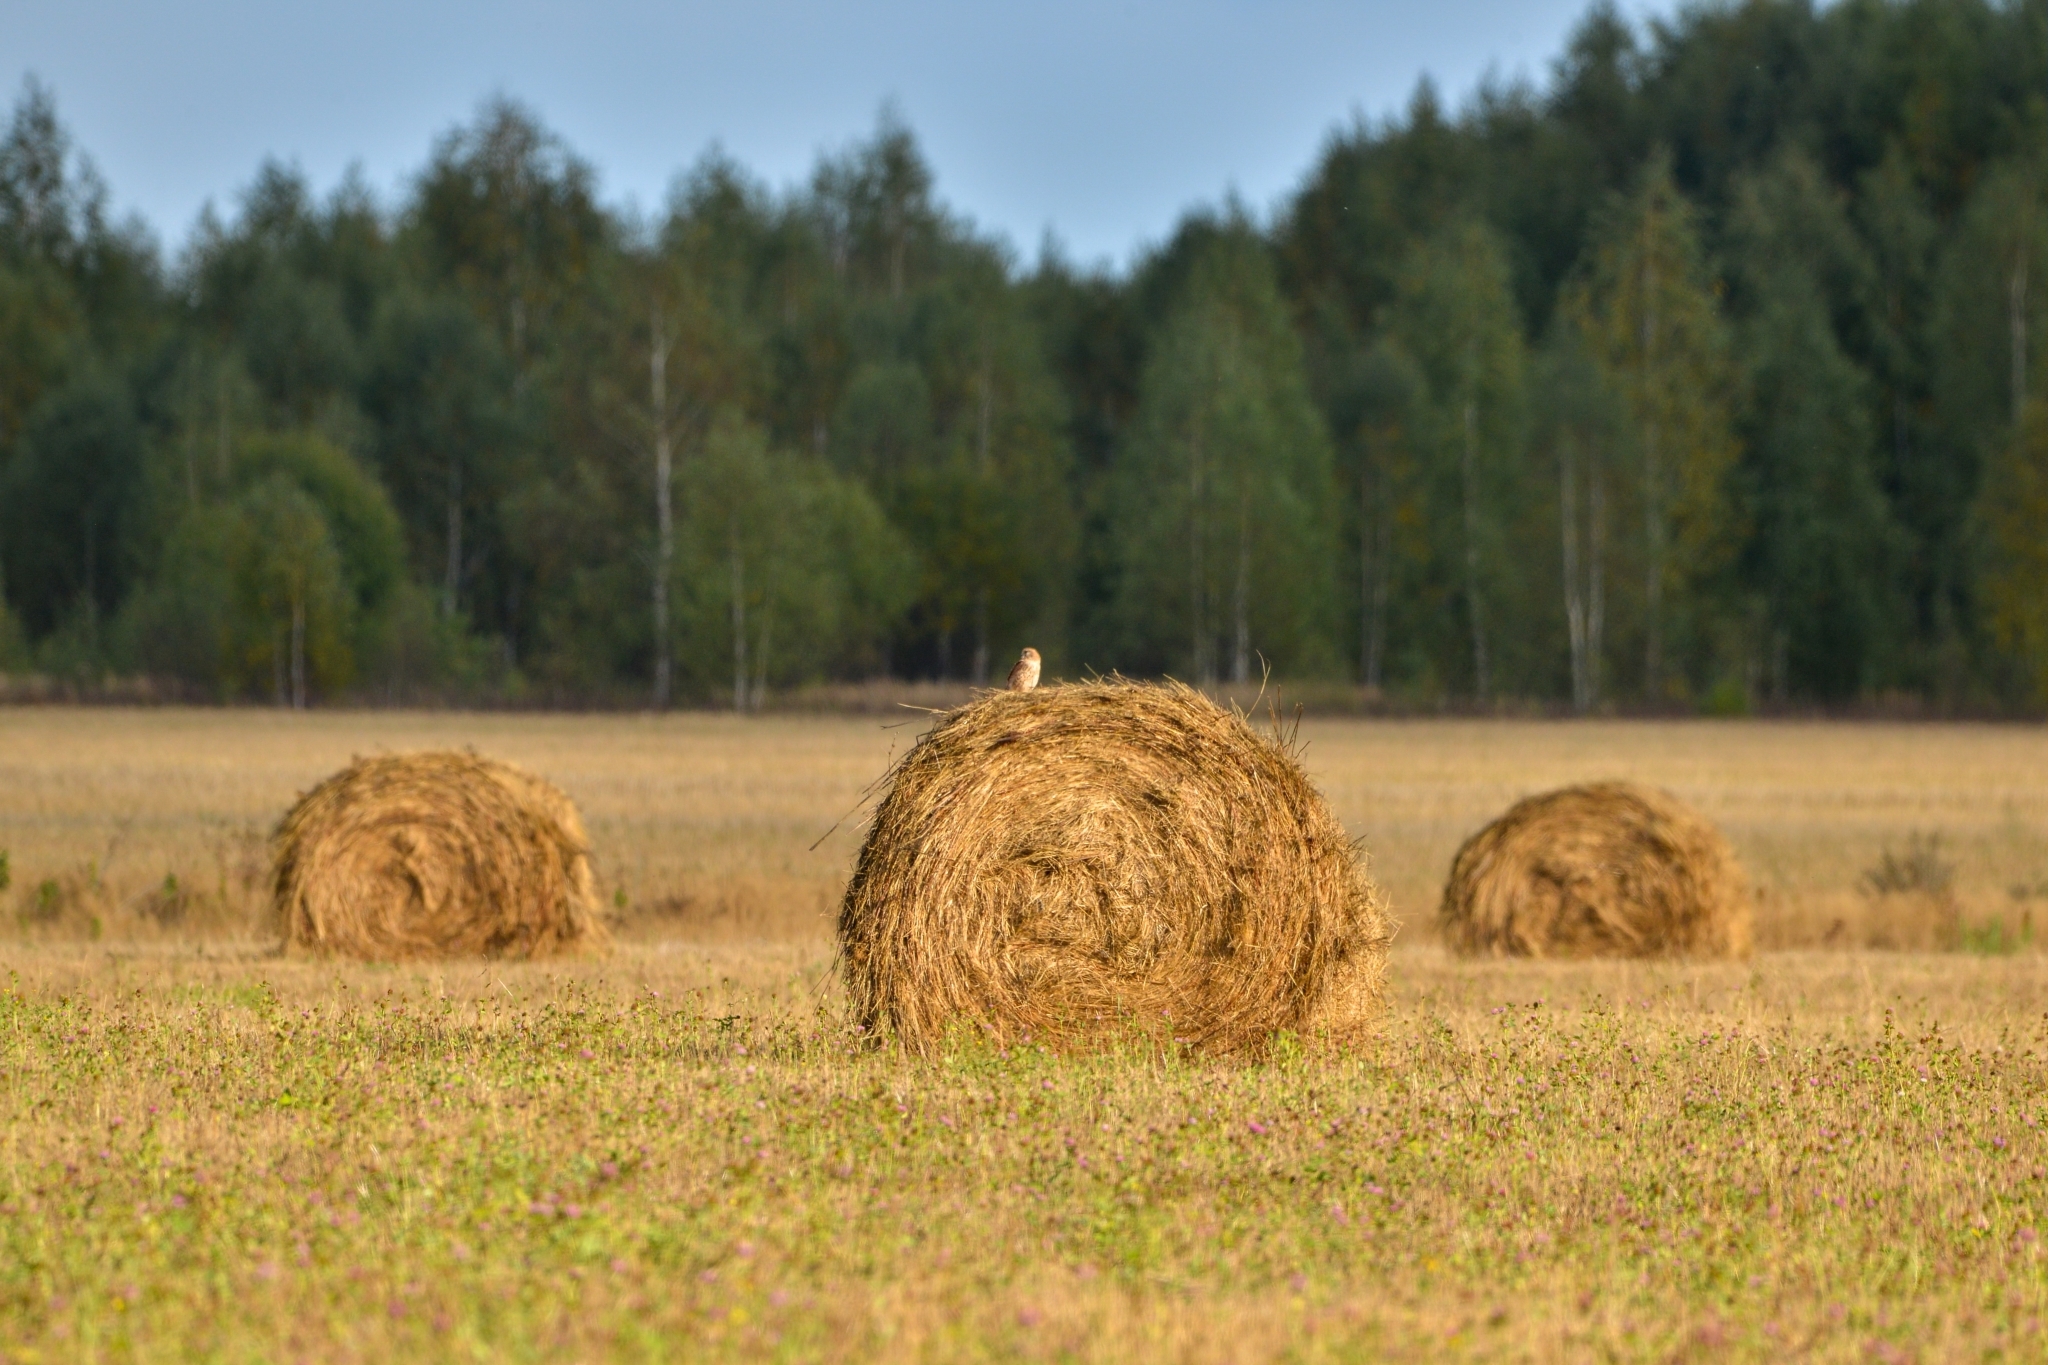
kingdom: Animalia
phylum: Chordata
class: Aves
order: Falconiformes
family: Falconidae
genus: Falco
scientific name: Falco tinnunculus
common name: Common kestrel
